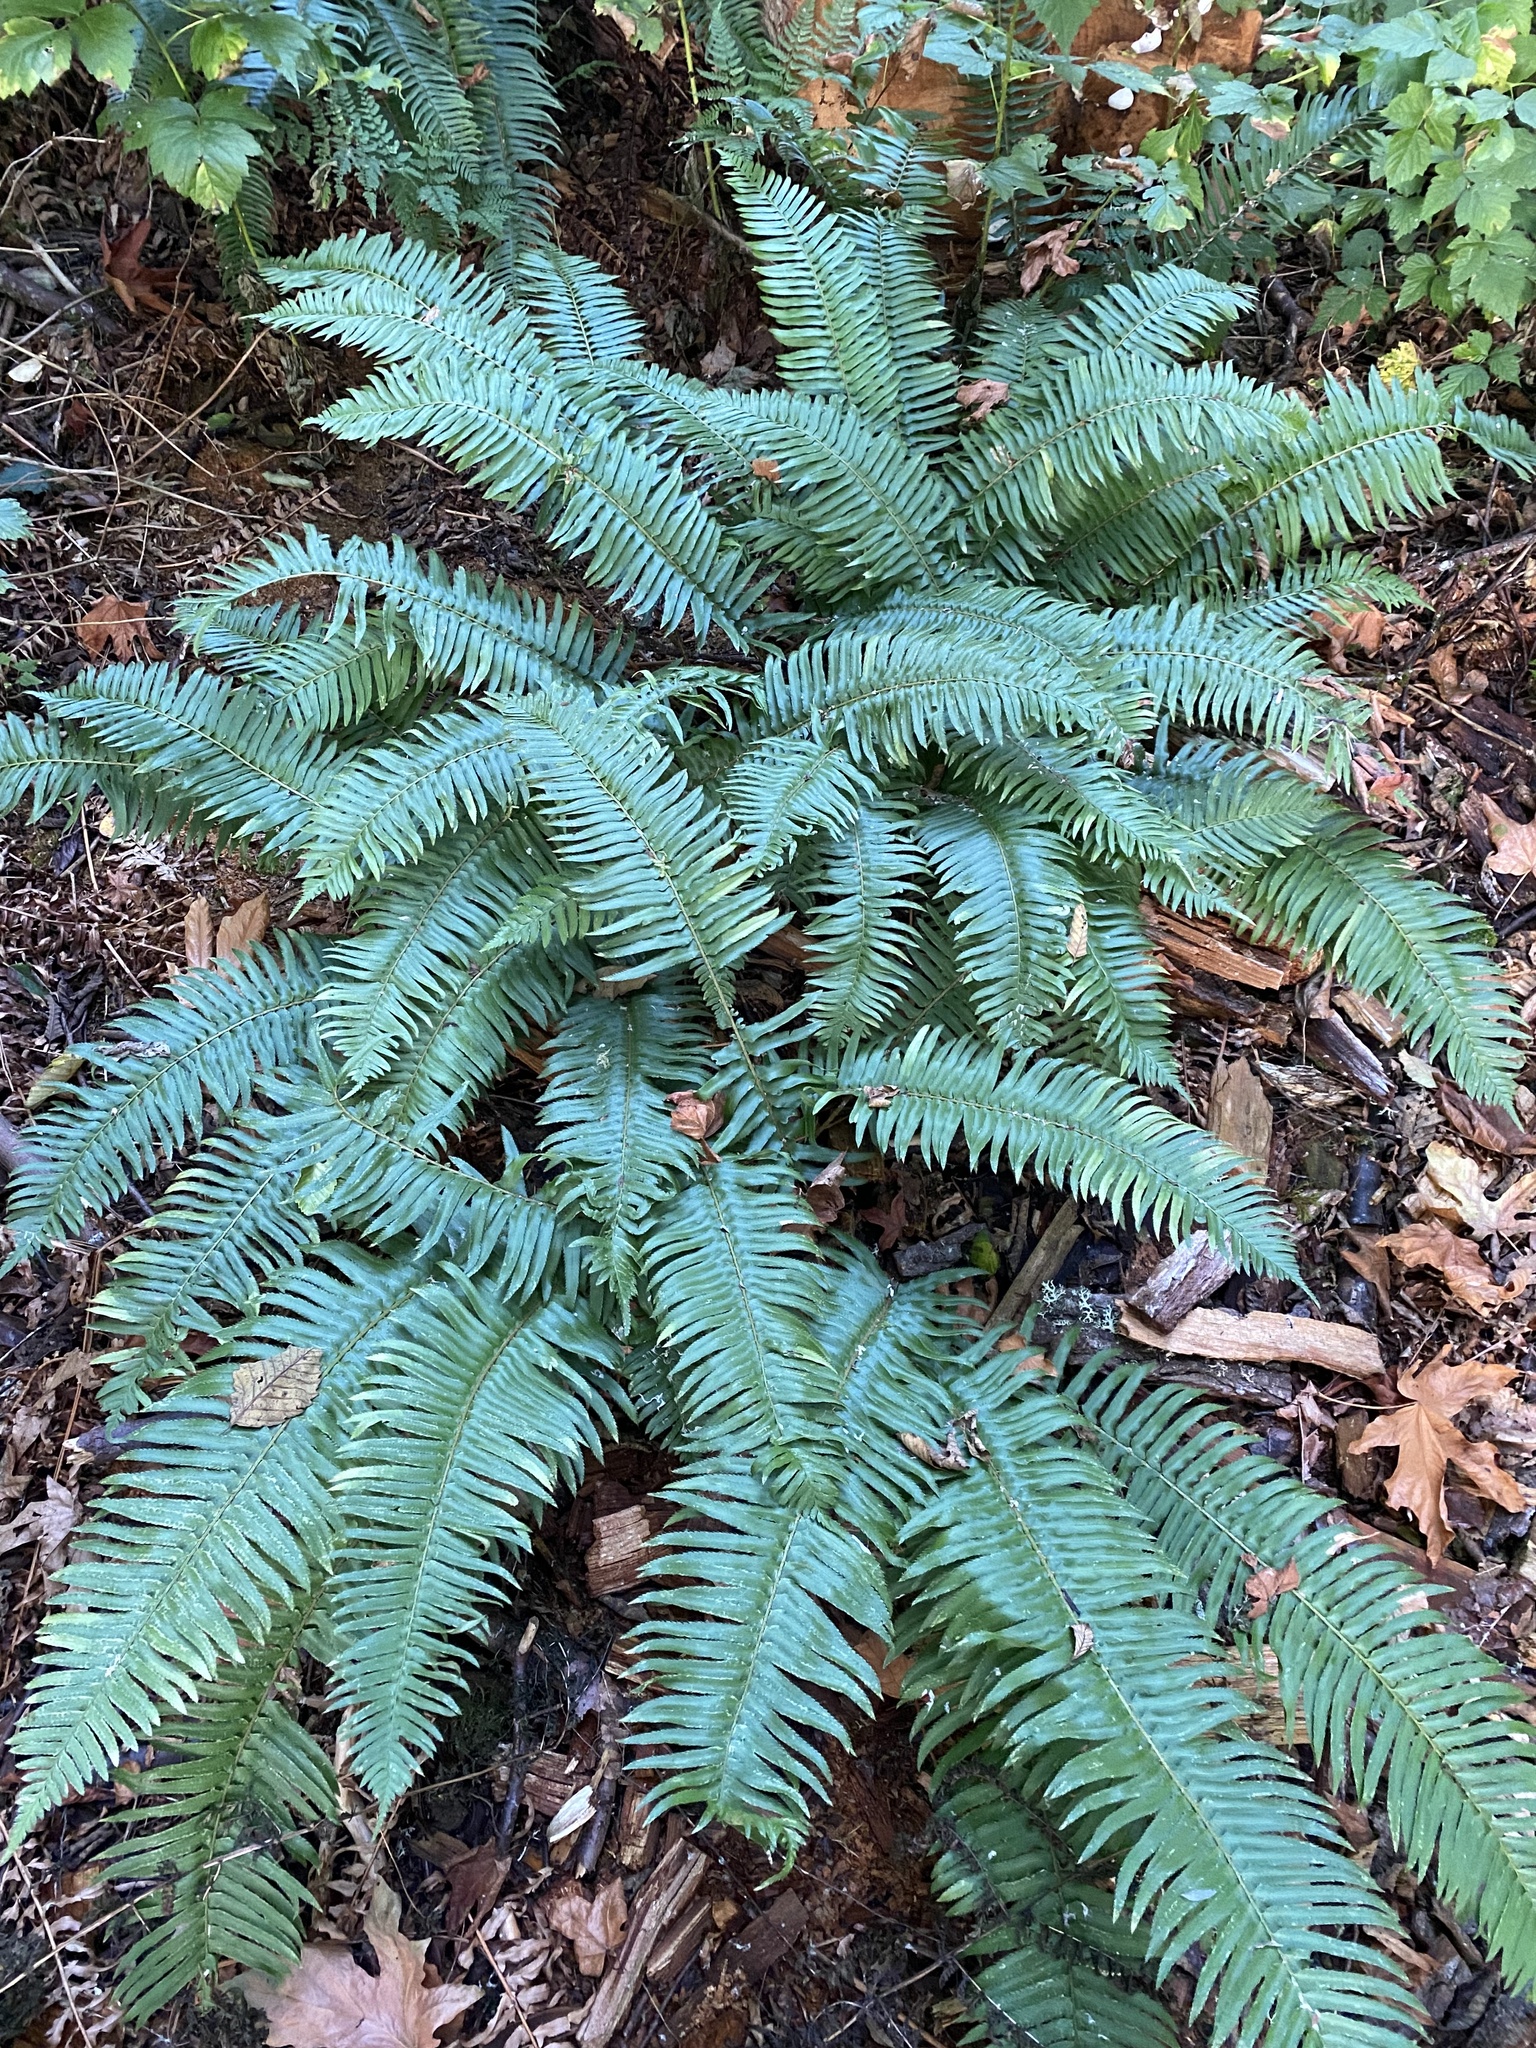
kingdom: Plantae
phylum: Tracheophyta
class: Polypodiopsida
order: Polypodiales
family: Dryopteridaceae
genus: Polystichum
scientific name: Polystichum munitum
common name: Western sword-fern
